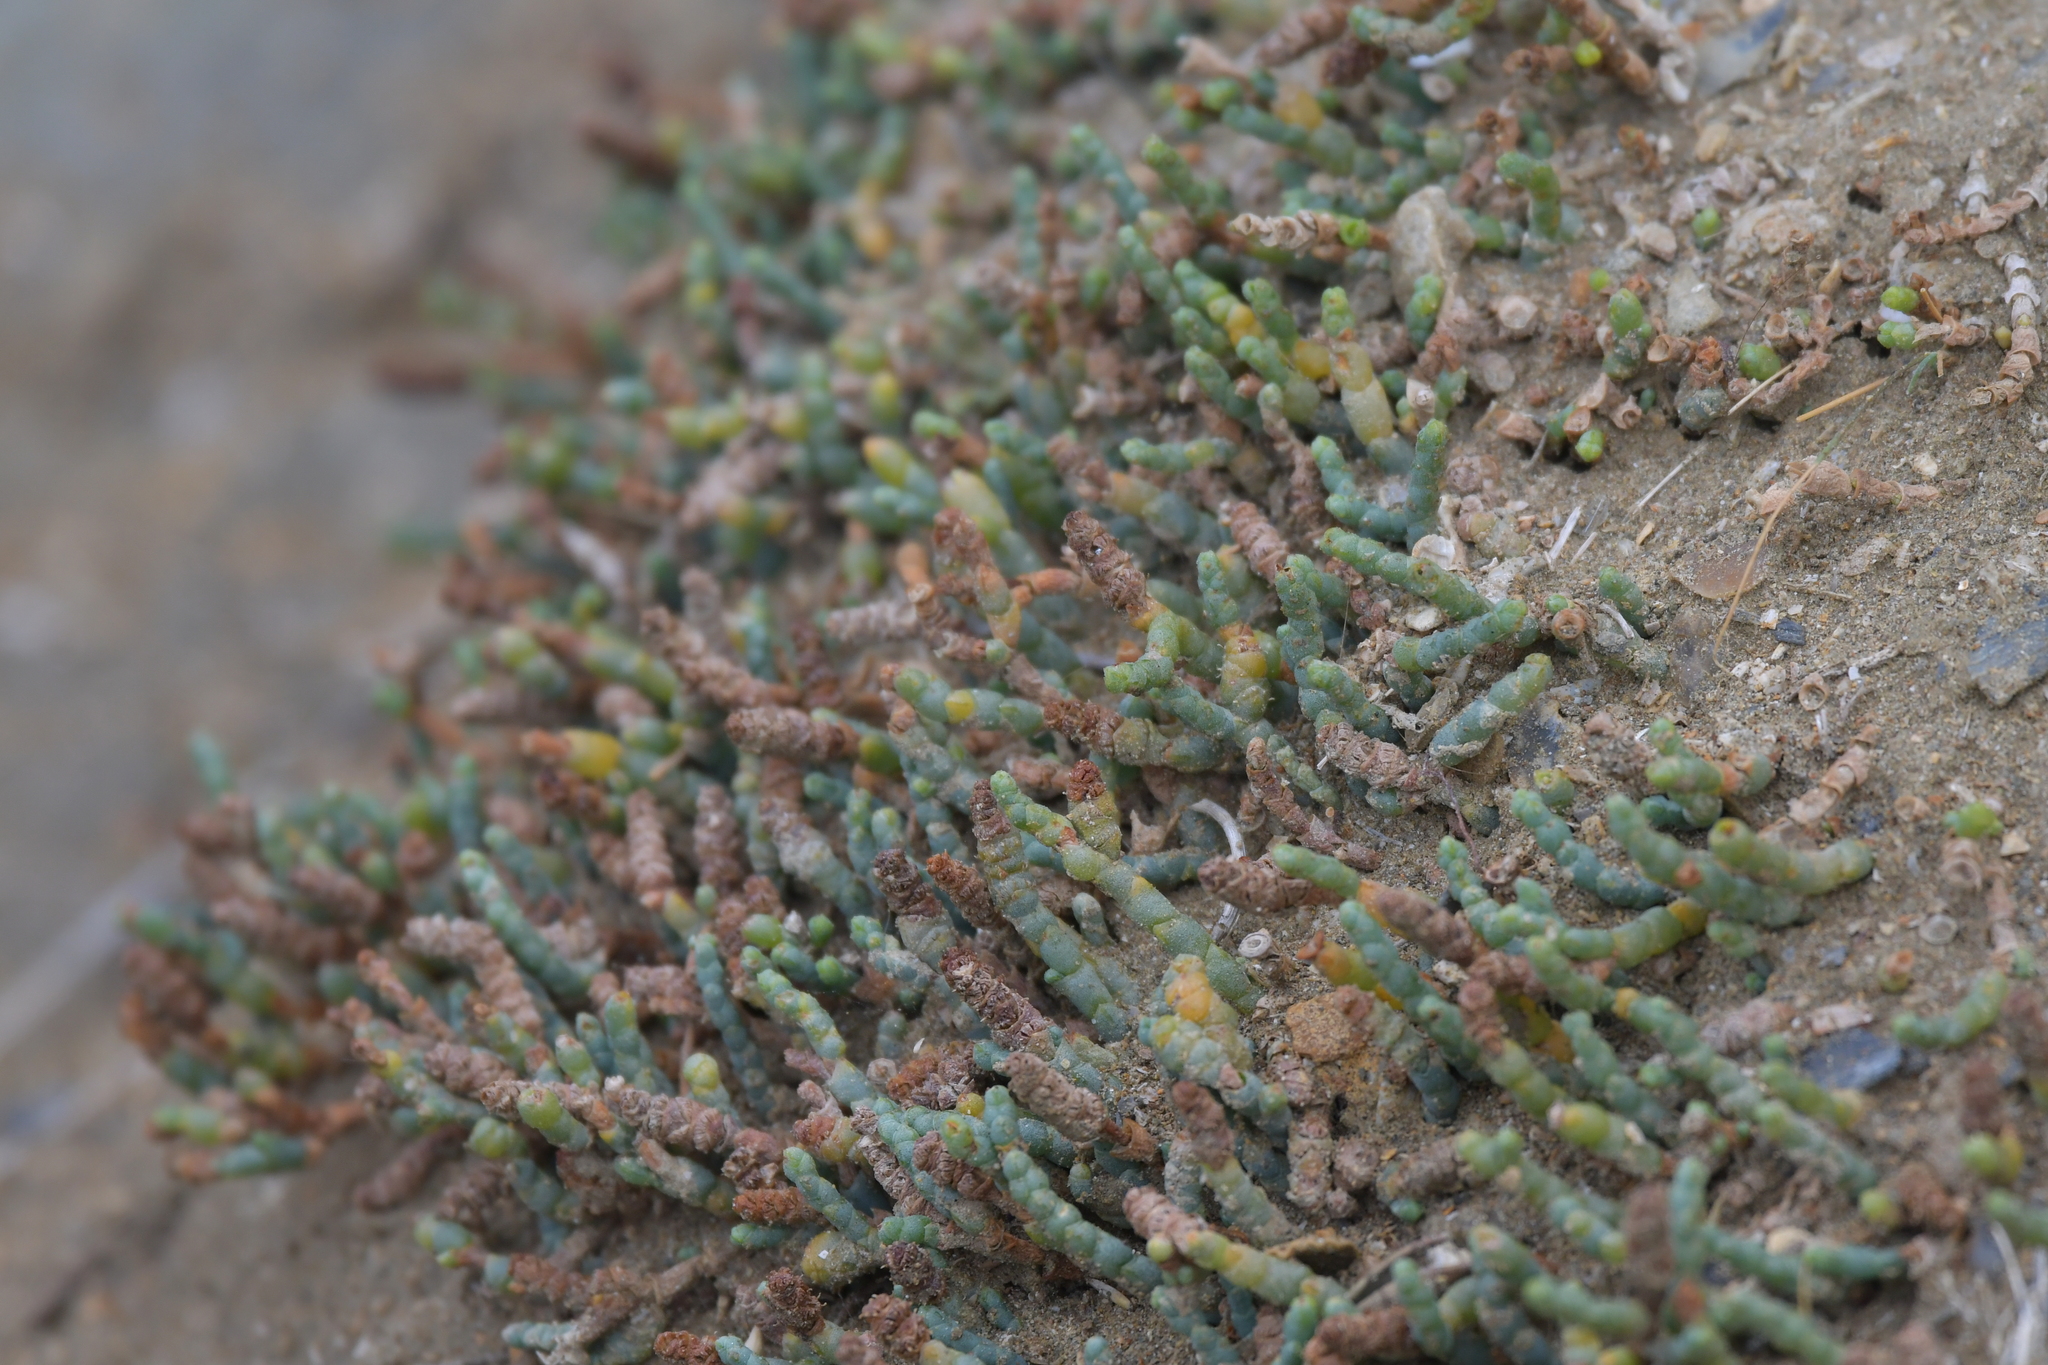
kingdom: Plantae
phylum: Tracheophyta
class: Magnoliopsida
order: Caryophyllales
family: Amaranthaceae
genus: Salicornia
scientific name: Salicornia quinqueflora
